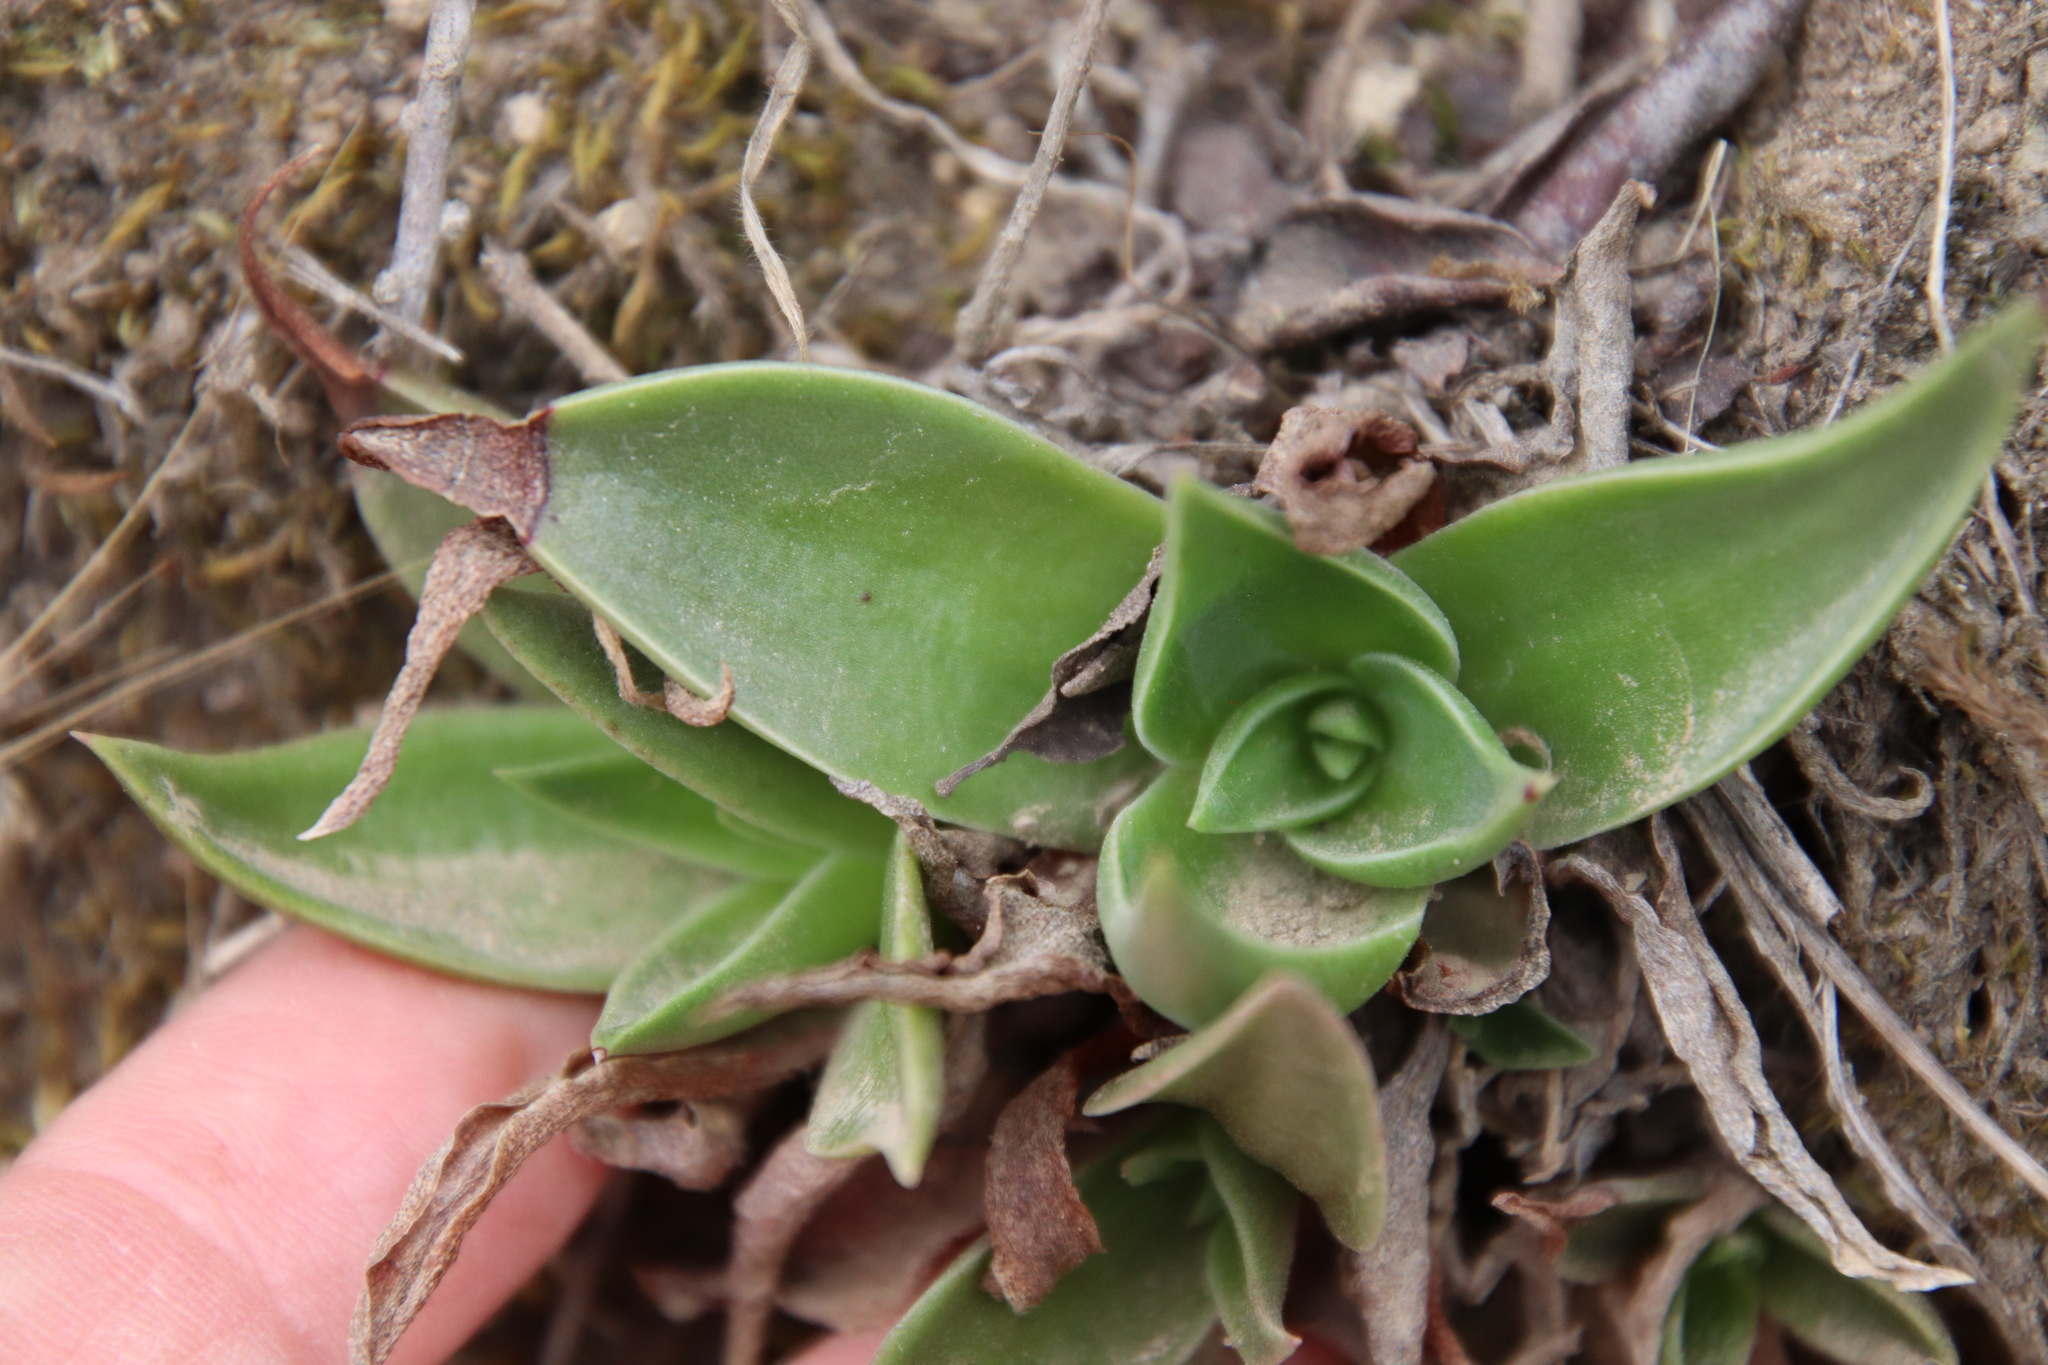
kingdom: Plantae
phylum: Tracheophyta
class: Magnoliopsida
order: Saxifragales
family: Crassulaceae
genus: Dudleya
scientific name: Dudleya lanceolata
